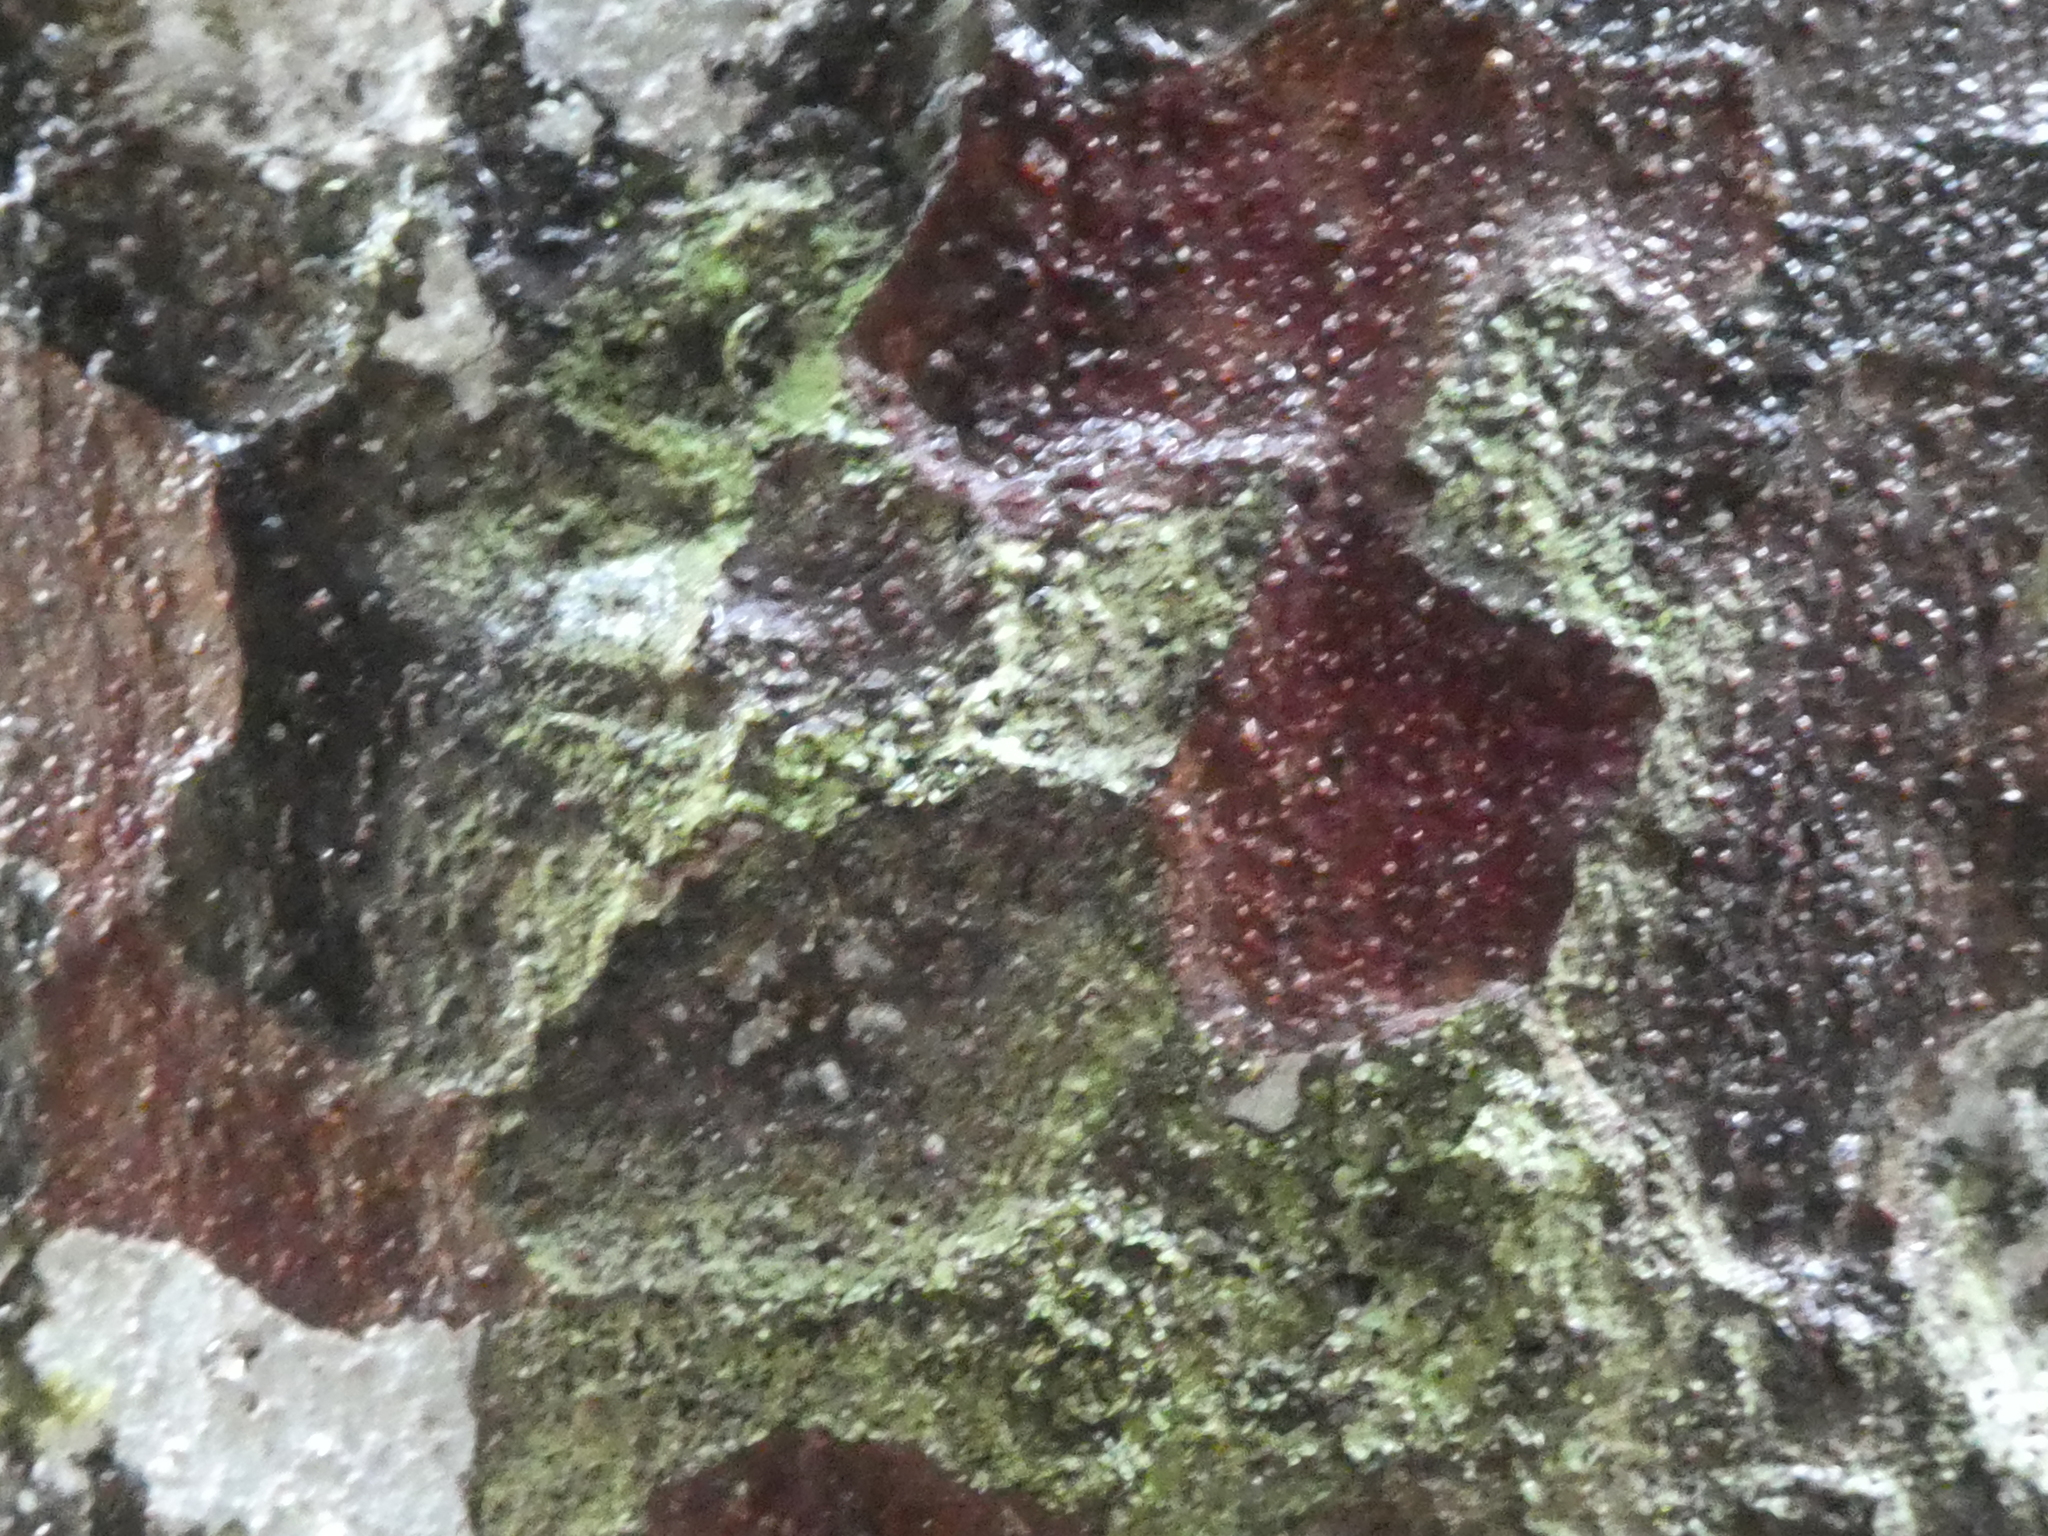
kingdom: Plantae
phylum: Tracheophyta
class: Pinopsida
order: Pinales
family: Podocarpaceae
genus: Prumnopitys
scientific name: Prumnopitys taxifolia
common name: Matai
